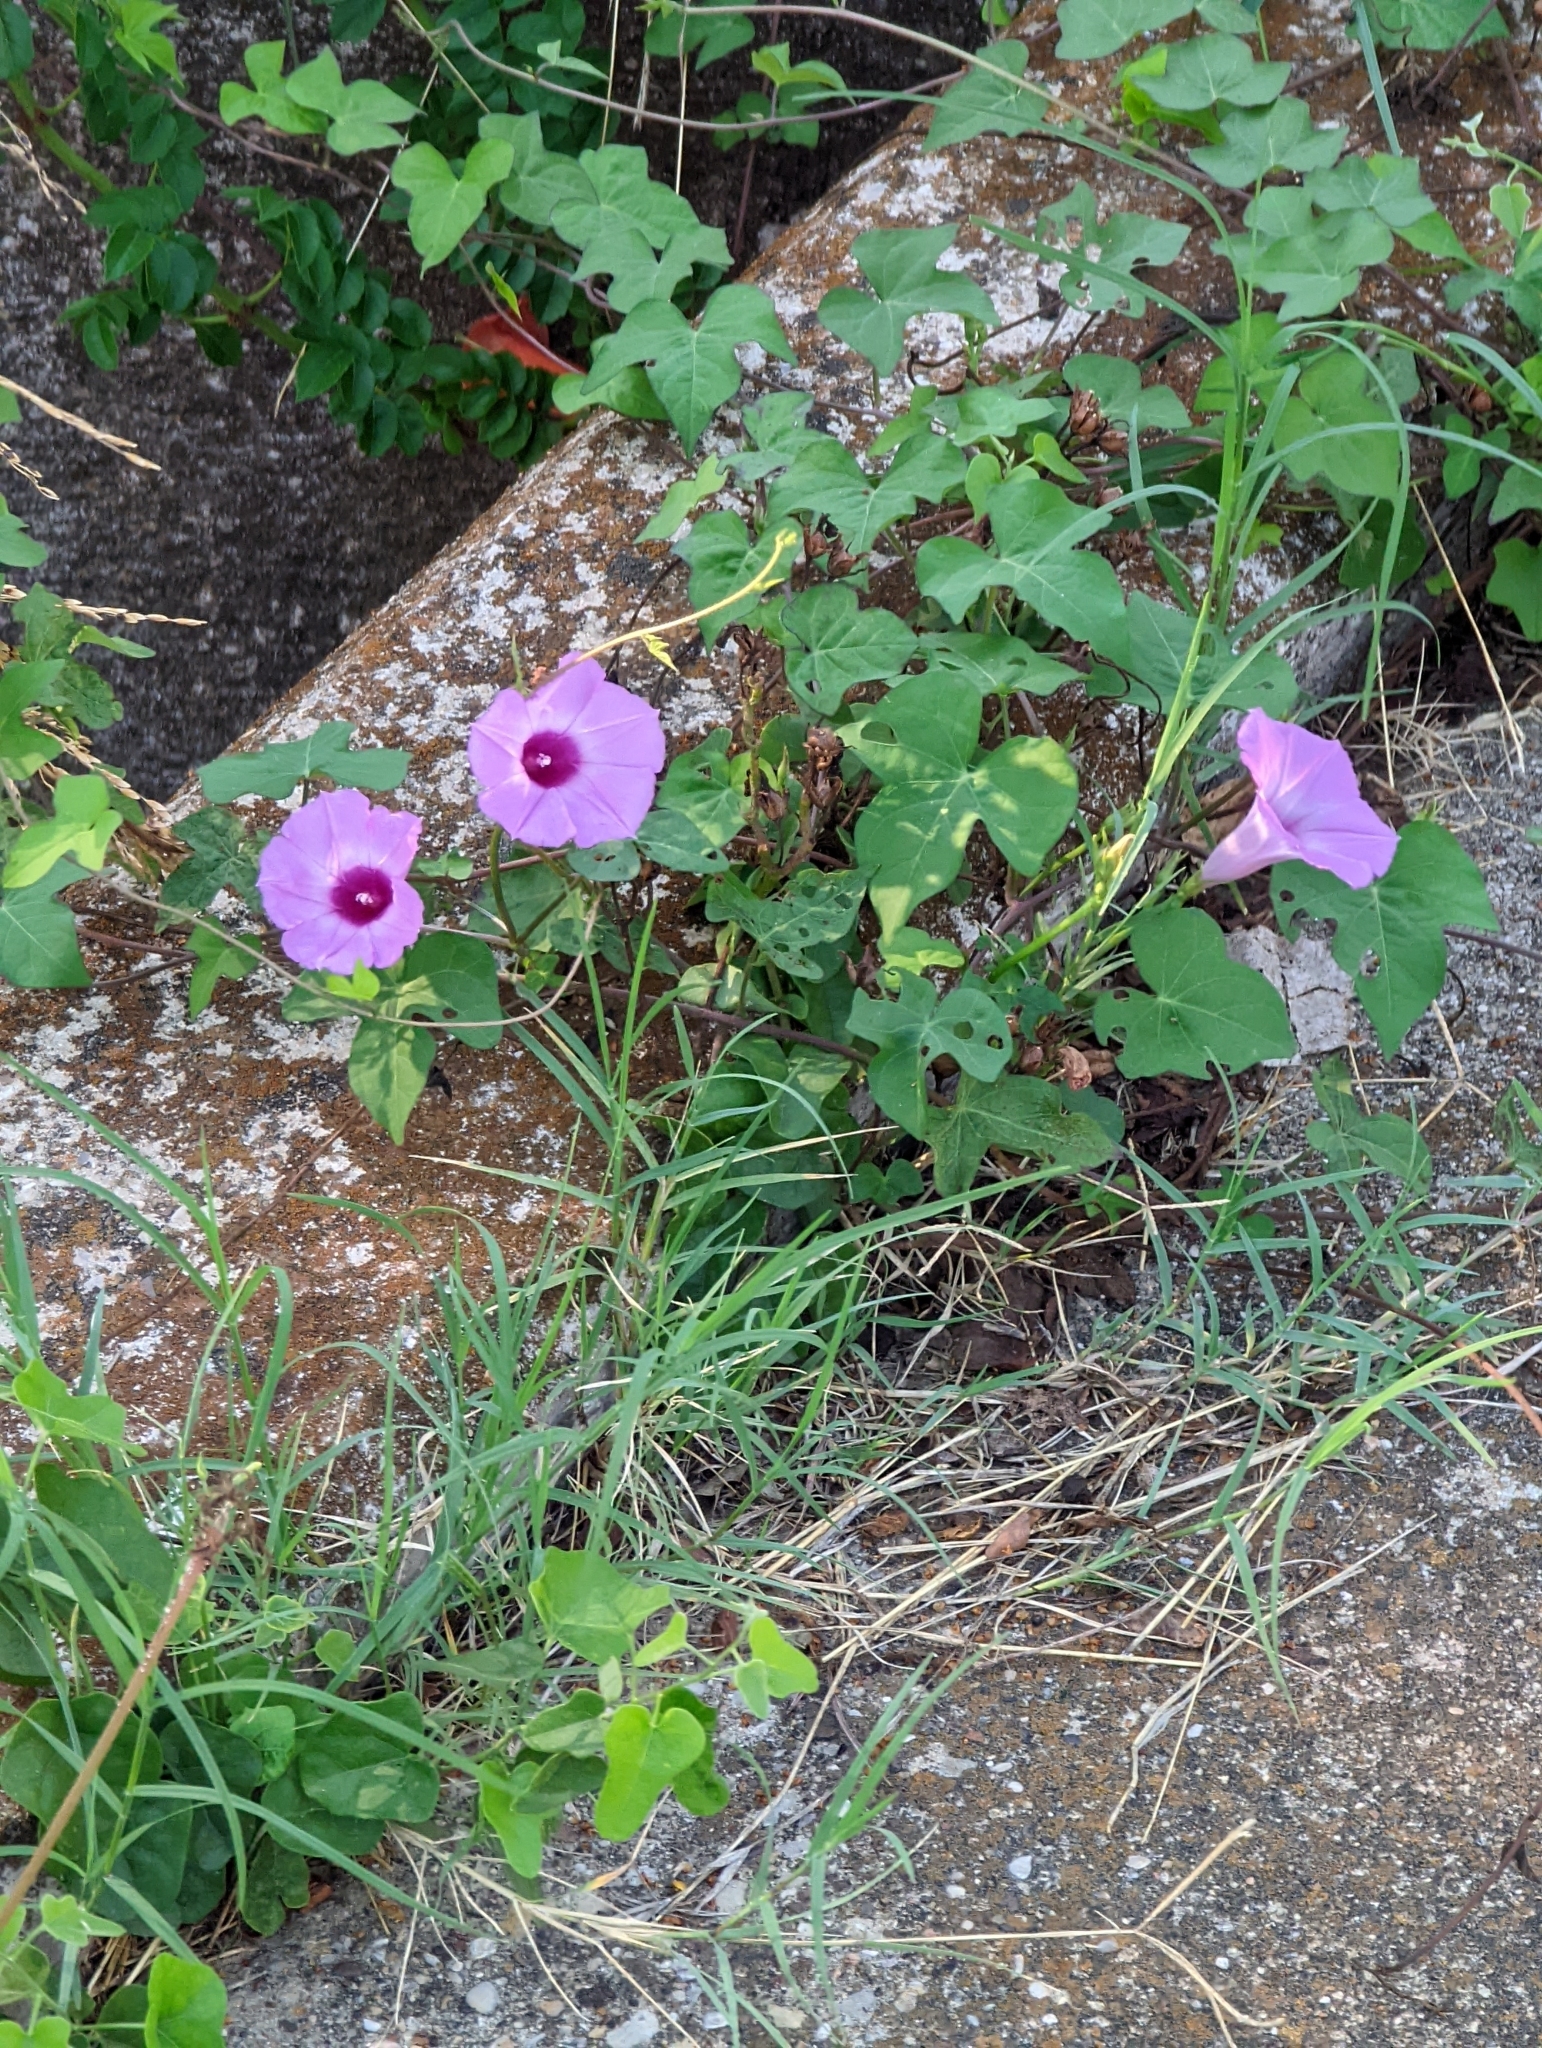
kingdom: Plantae
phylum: Tracheophyta
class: Magnoliopsida
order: Solanales
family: Convolvulaceae
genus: Ipomoea
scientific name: Ipomoea cordatotriloba
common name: Cotton morning glory
